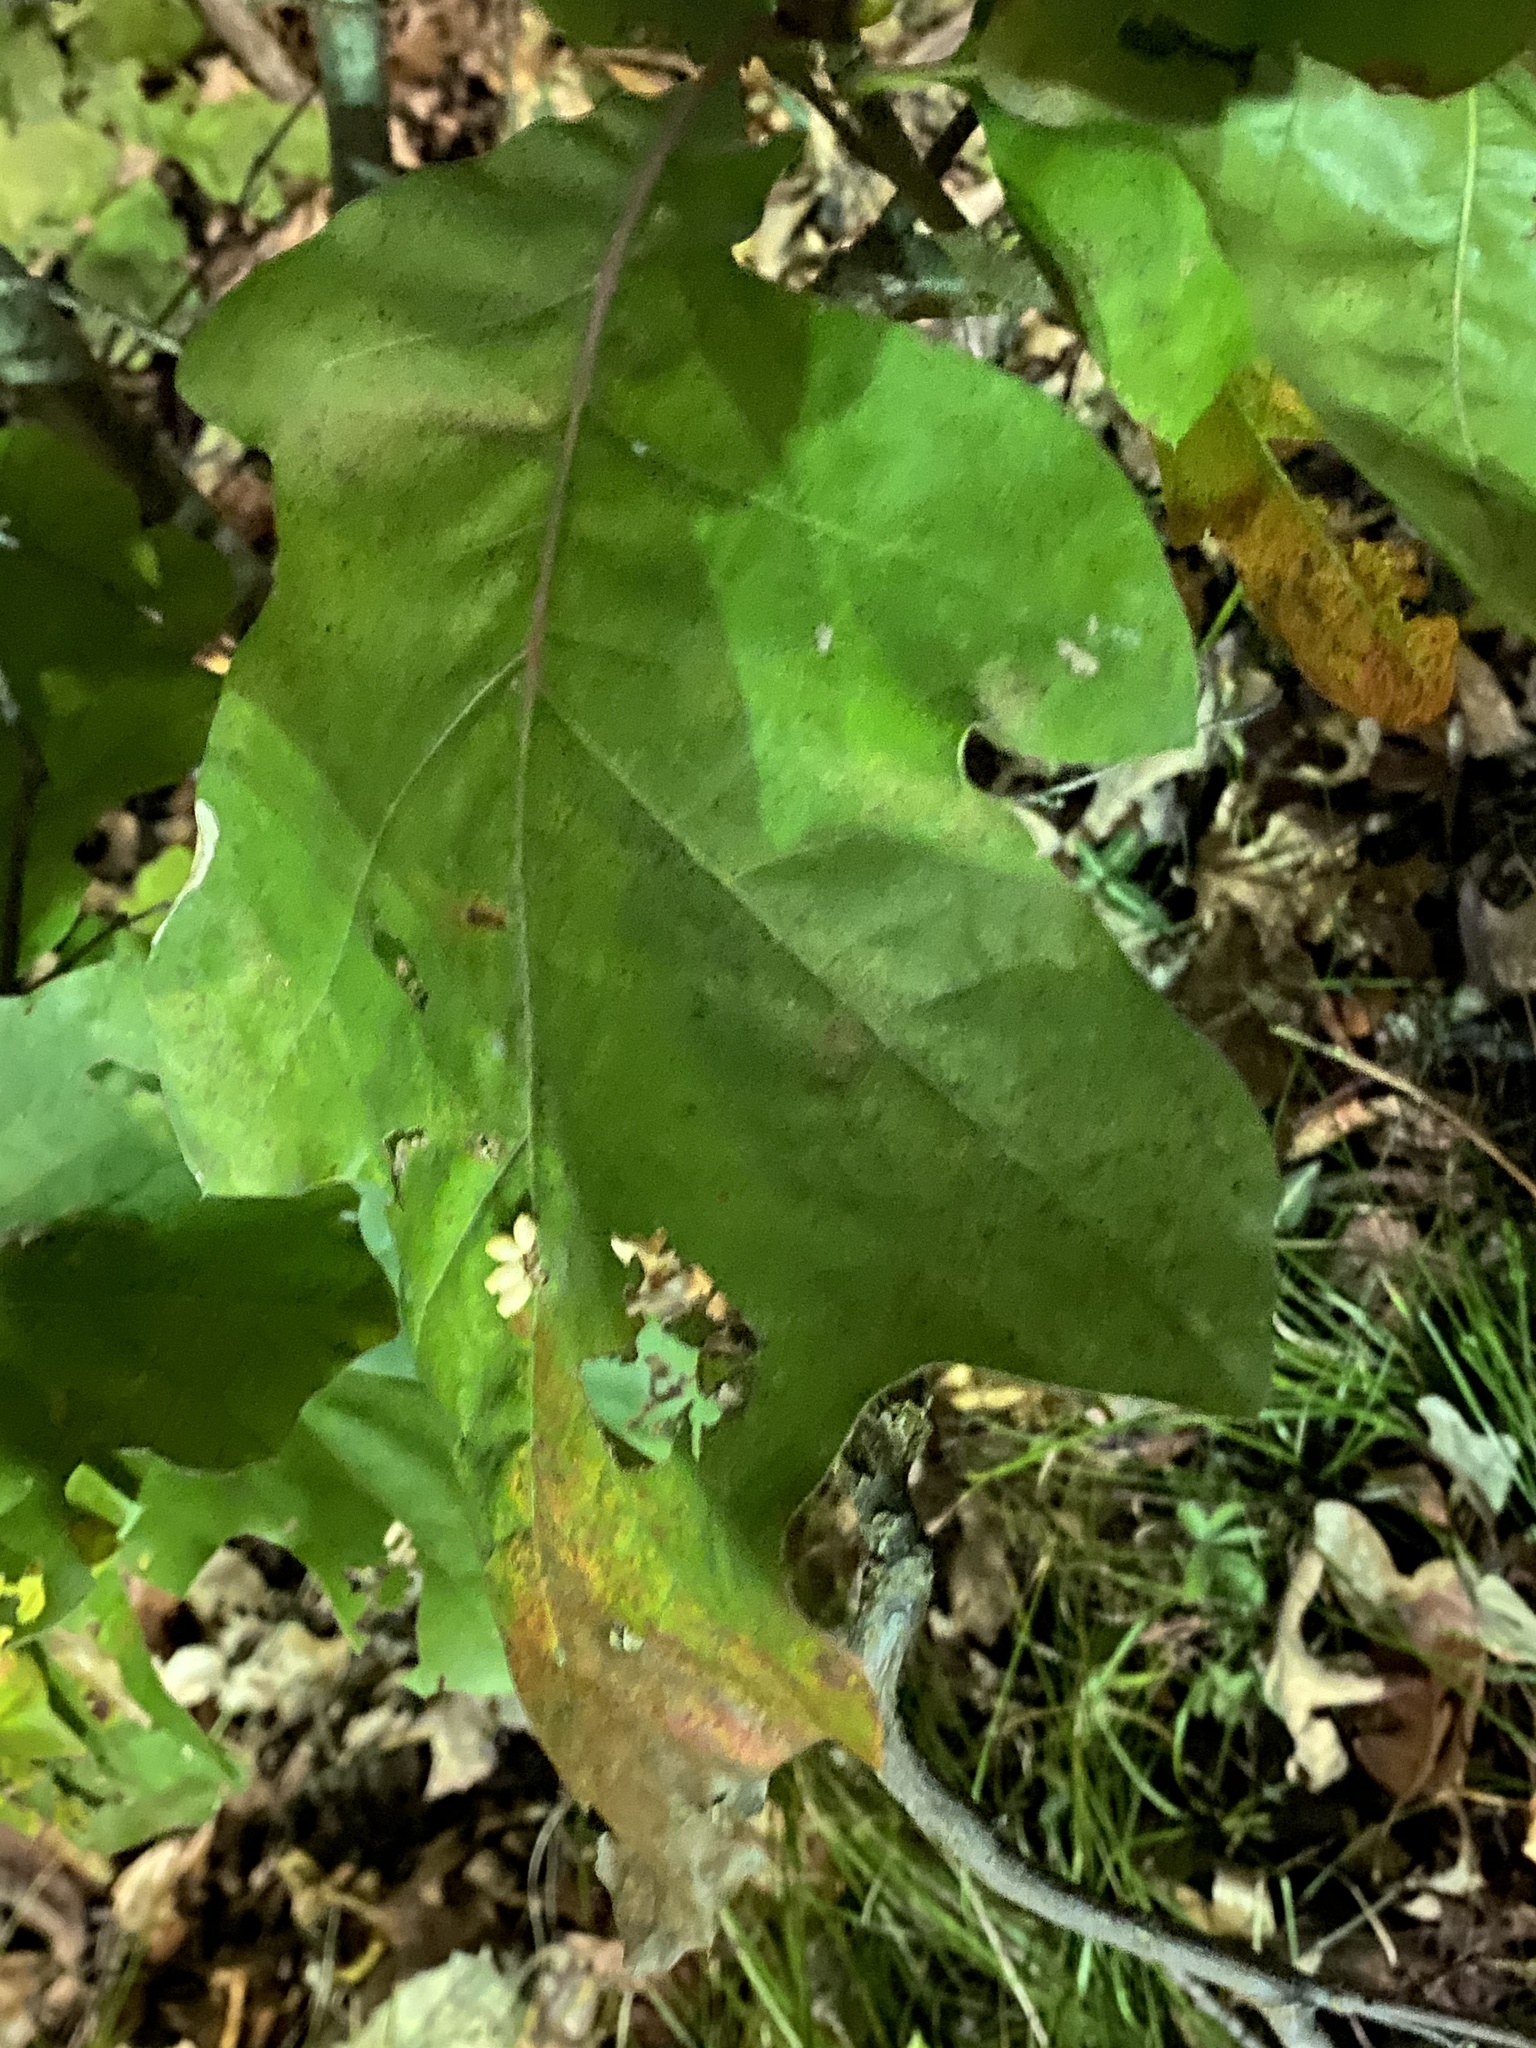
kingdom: Animalia
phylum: Arthropoda
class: Insecta
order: Hymenoptera
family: Cynipidae
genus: Kokkocynips
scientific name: Kokkocynips decidua
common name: Oak wheat gall
